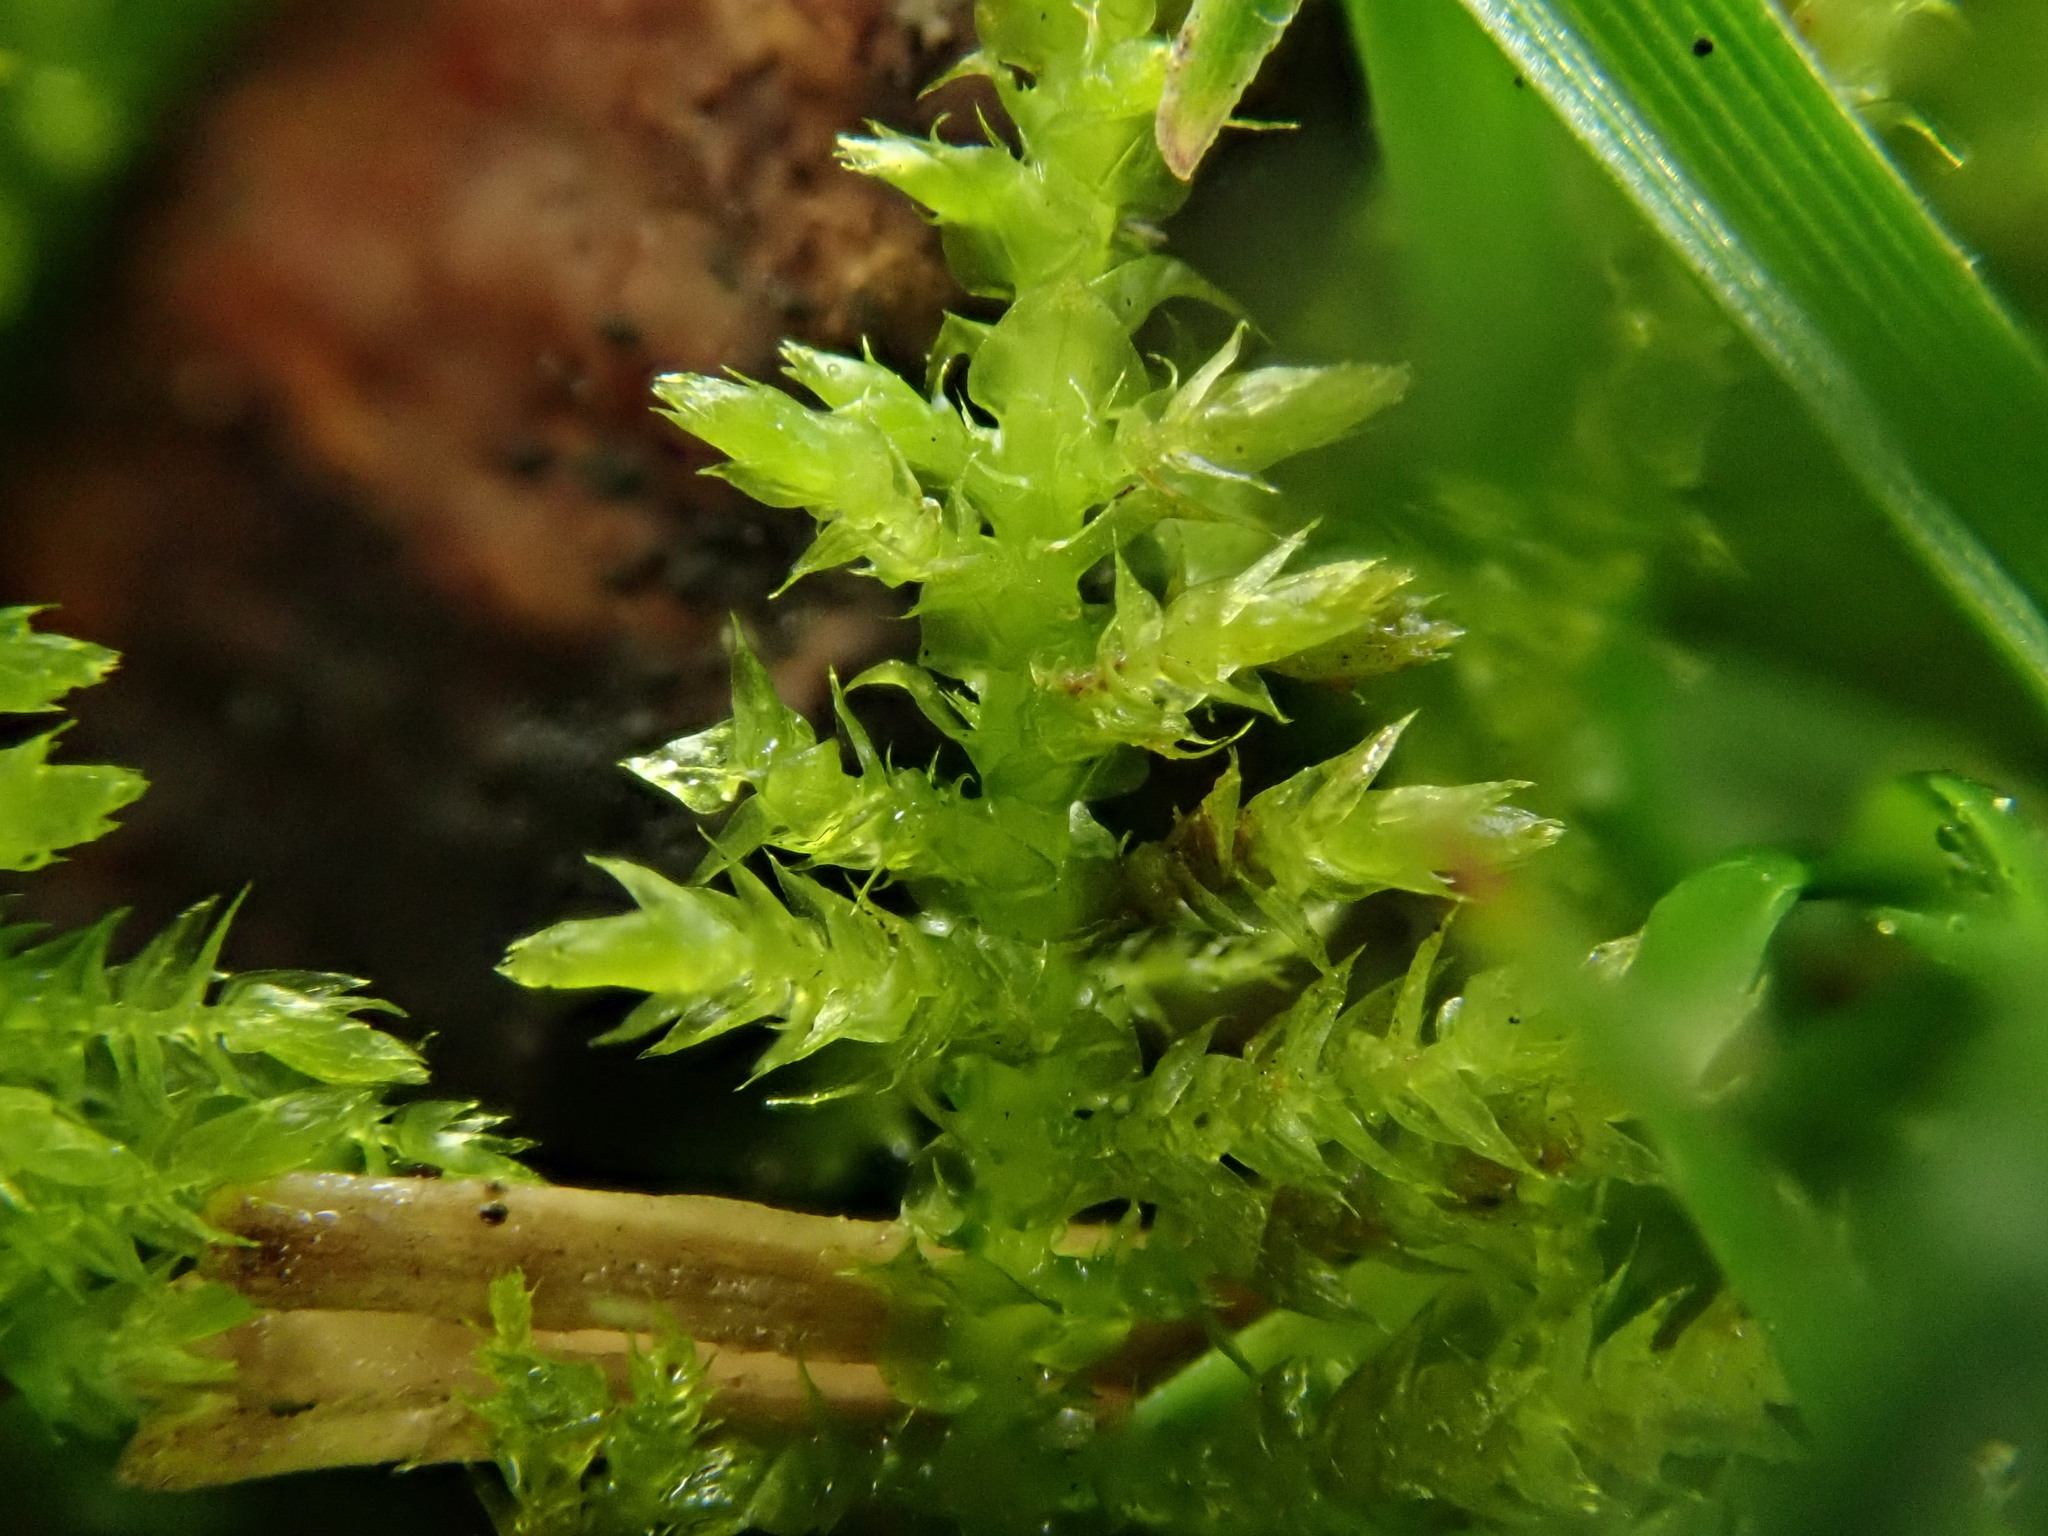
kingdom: Plantae
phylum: Bryophyta
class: Bryopsida
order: Hypnales
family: Brachytheciaceae
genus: Kindbergia
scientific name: Kindbergia praelonga
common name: Slender beaked moss
